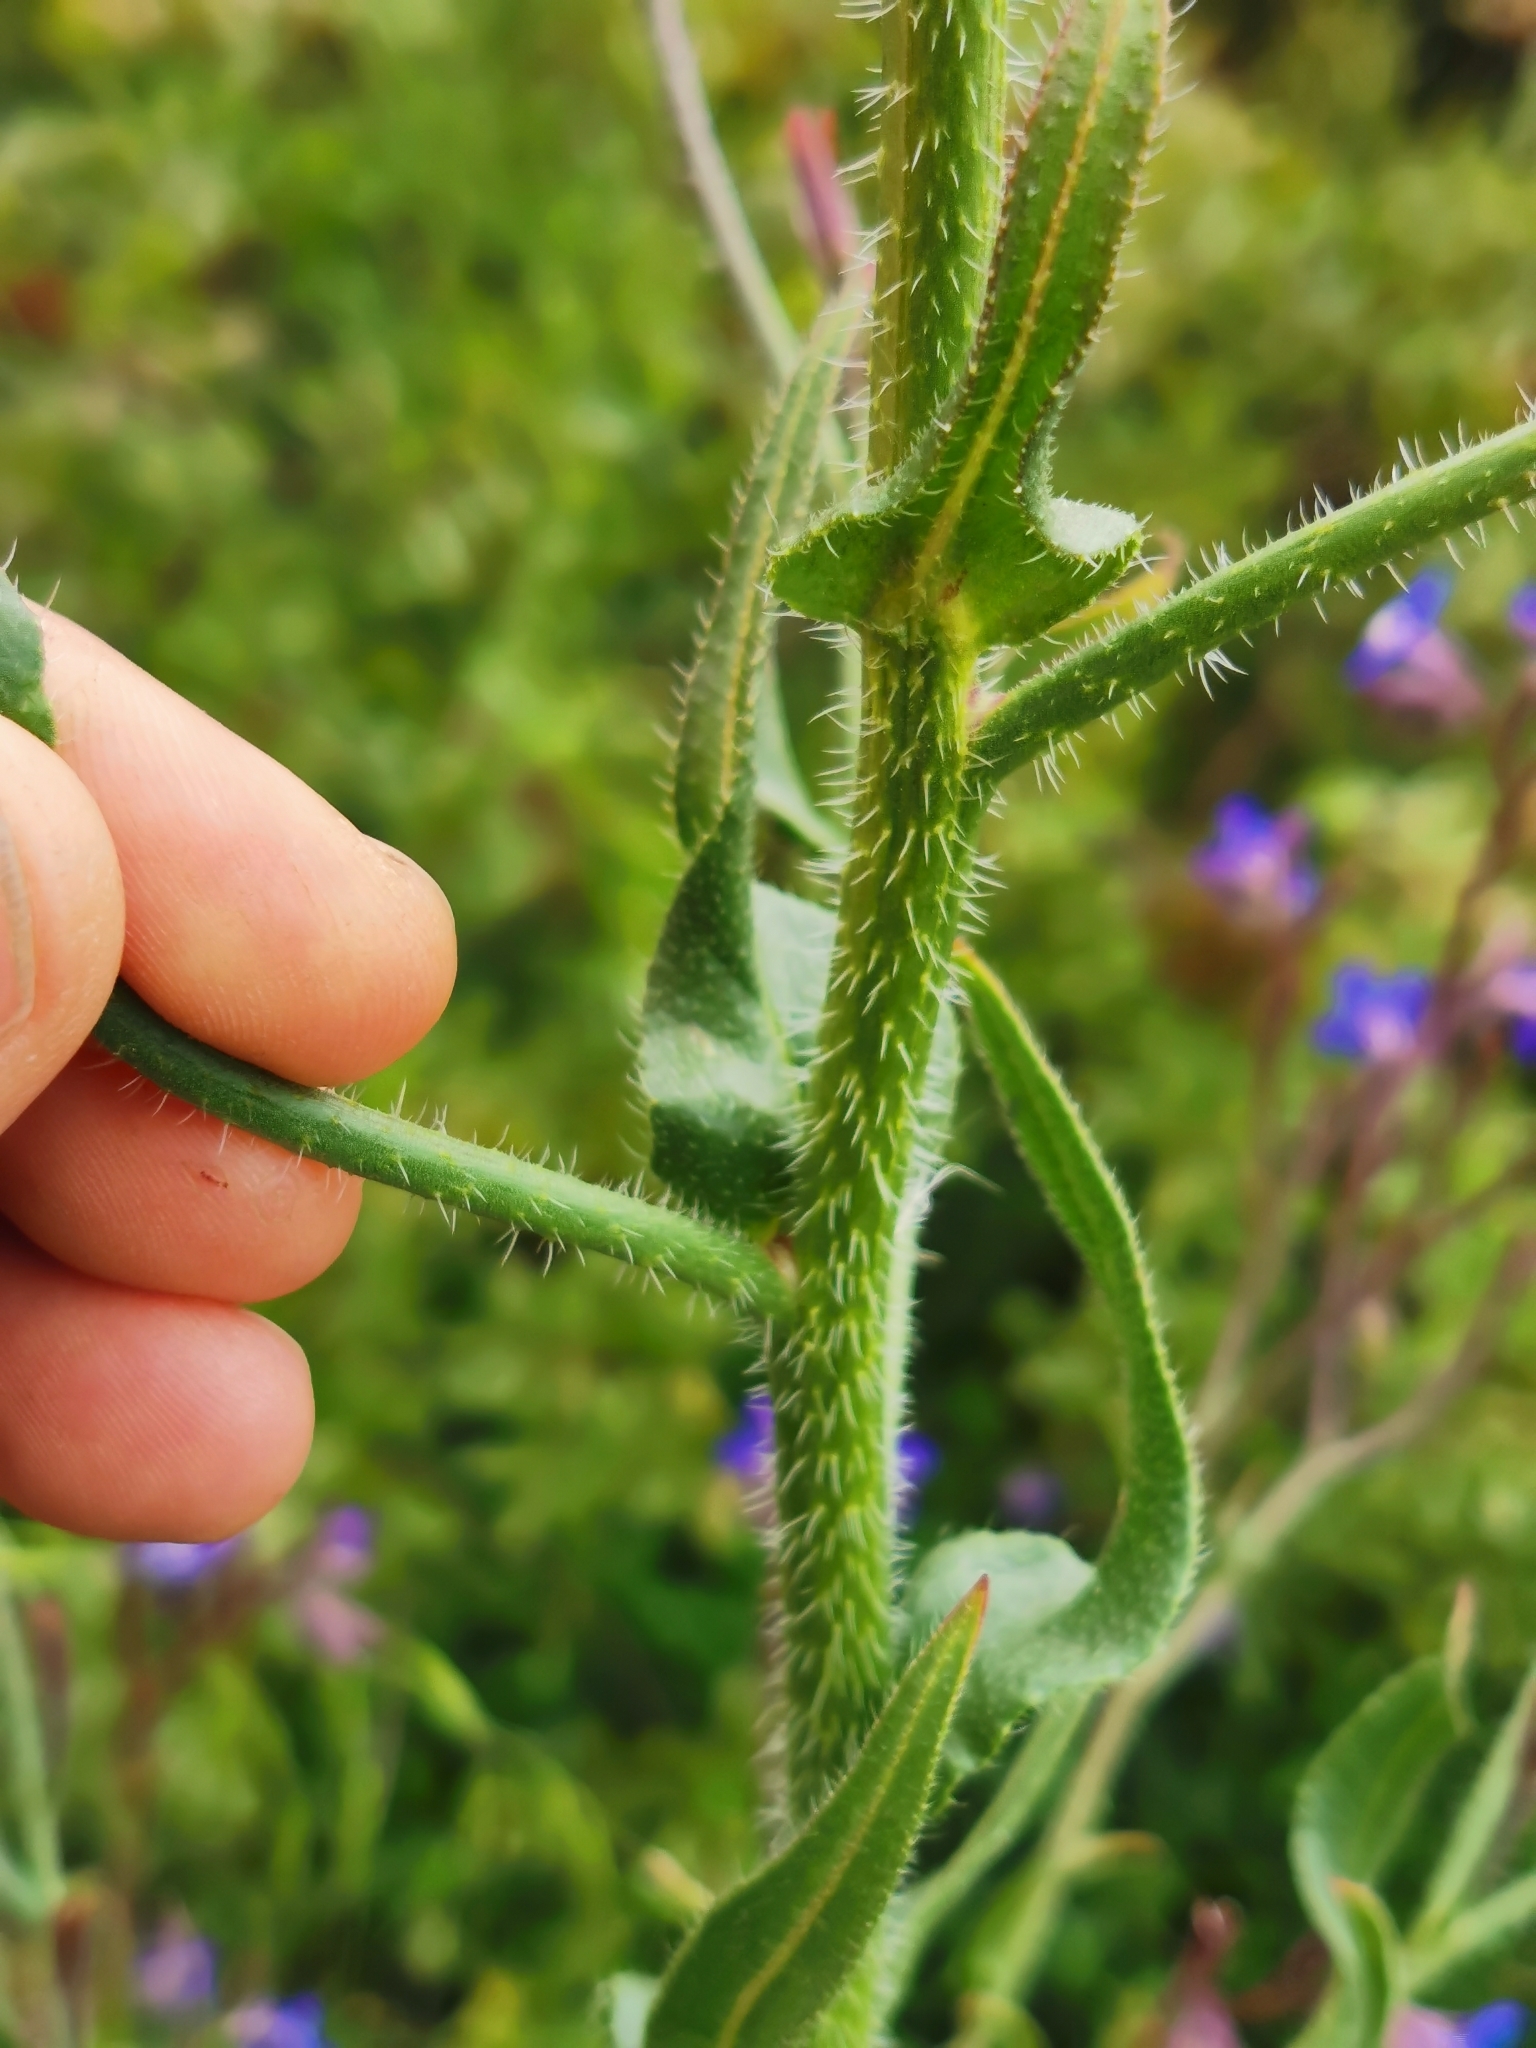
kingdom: Plantae
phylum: Tracheophyta
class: Magnoliopsida
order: Boraginales
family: Boraginaceae
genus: Anchusa
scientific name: Anchusa azurea
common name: Garden anchusa
